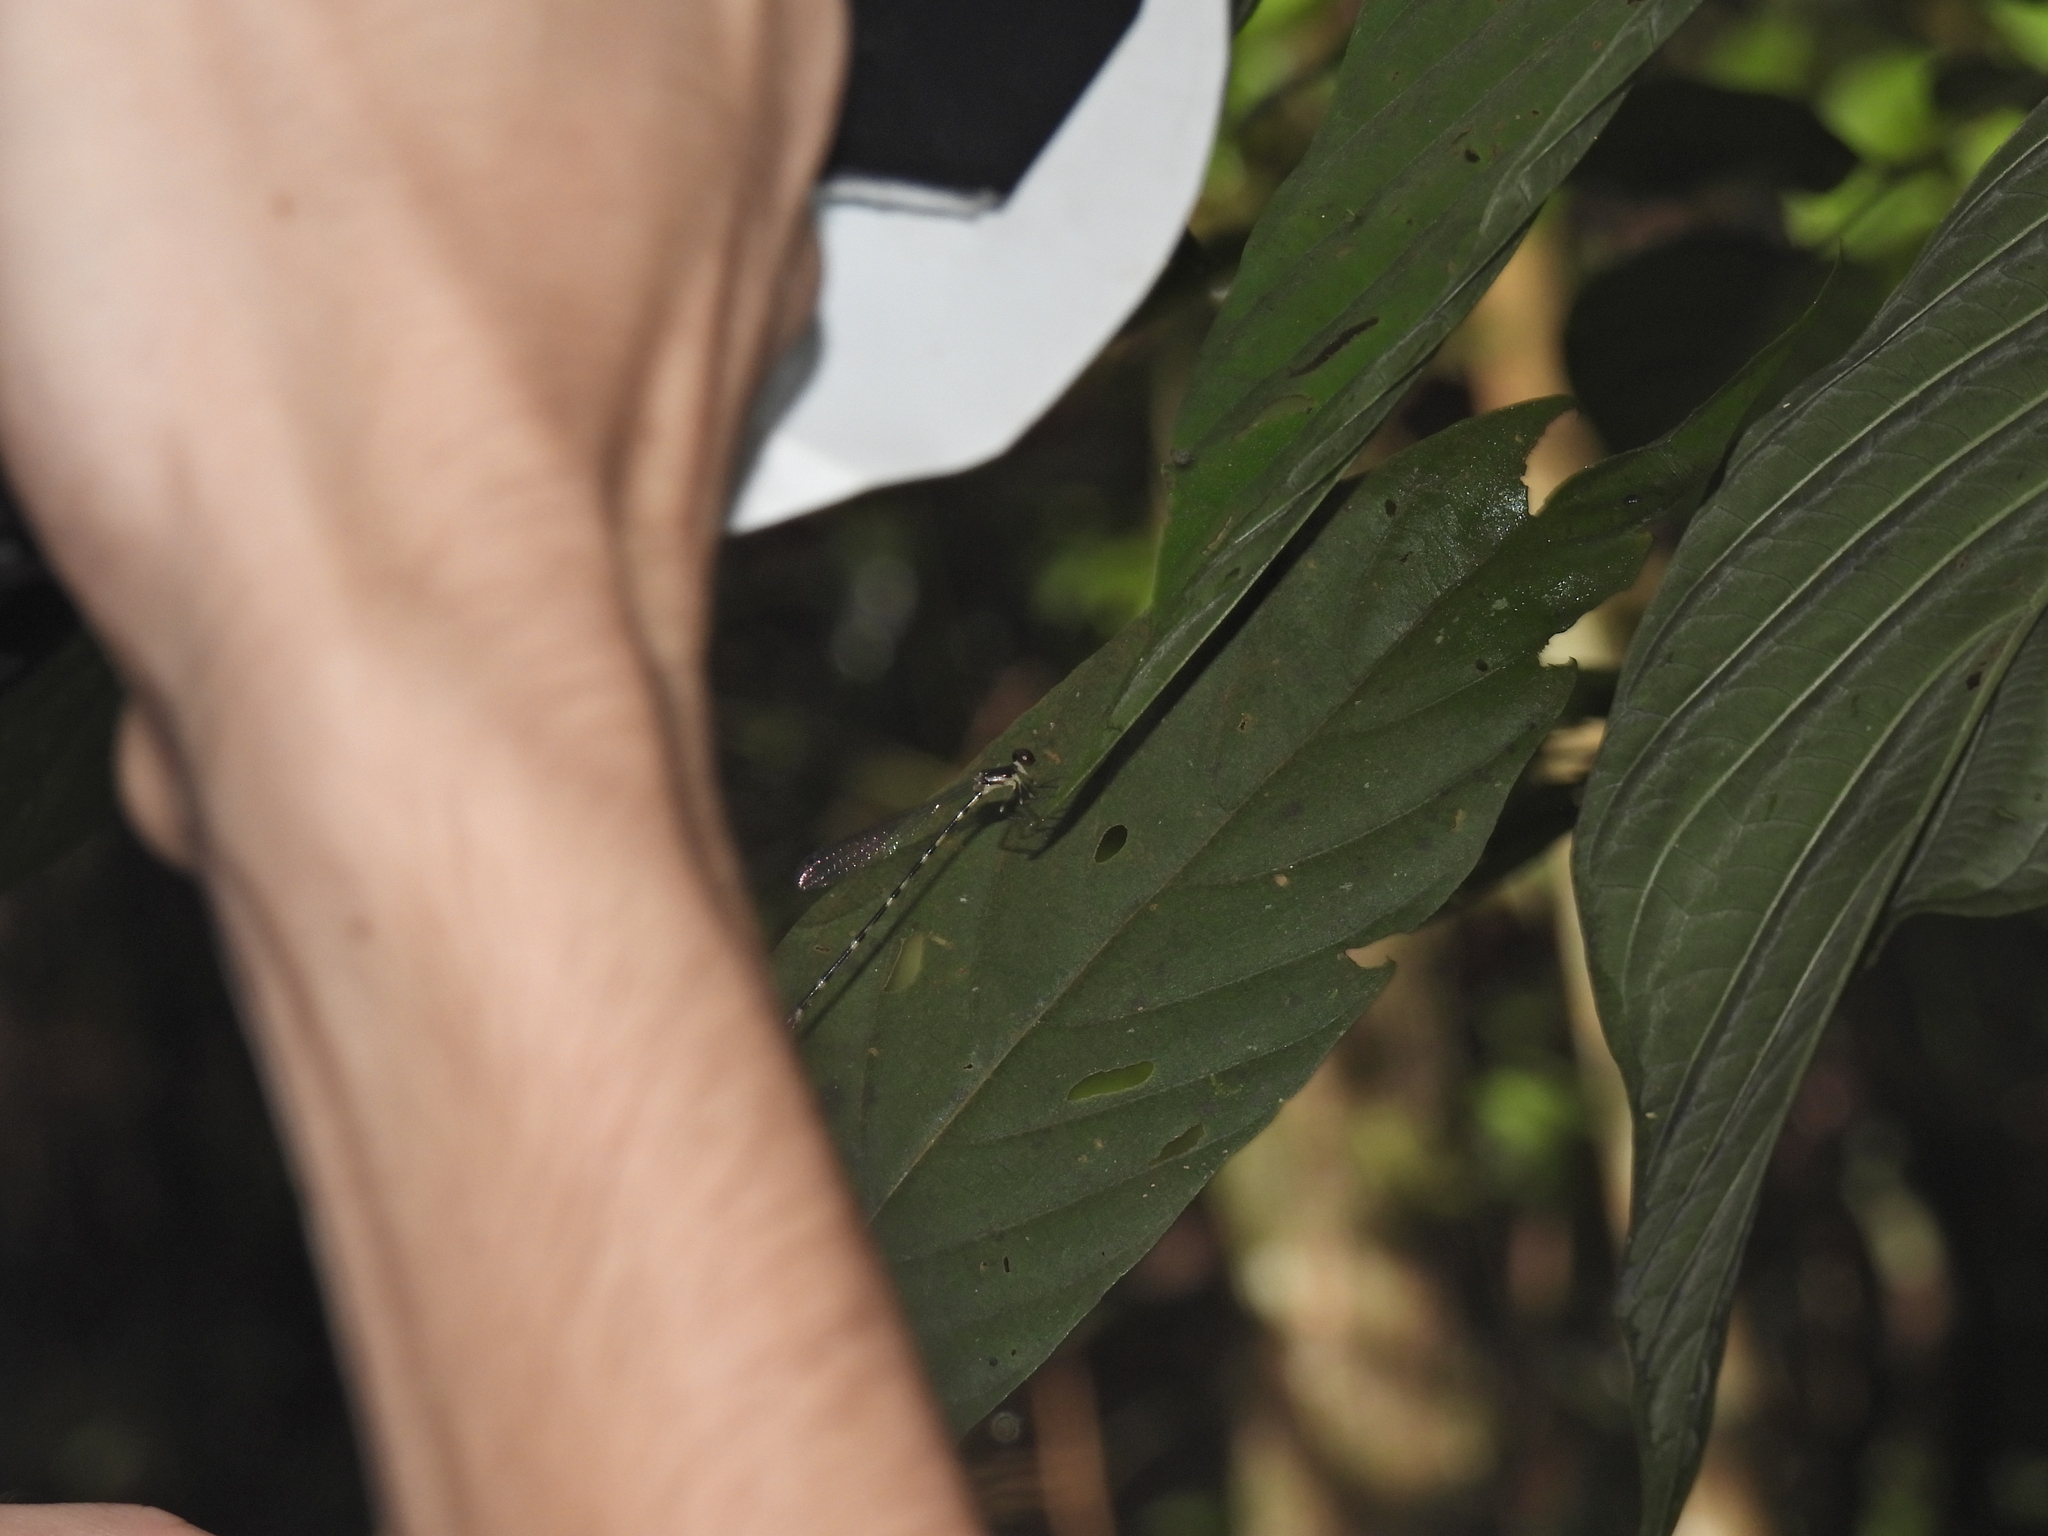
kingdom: Animalia
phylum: Arthropoda
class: Insecta
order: Odonata
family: Platystictidae
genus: Drepanosticta
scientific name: Drepanosticta quadrata
